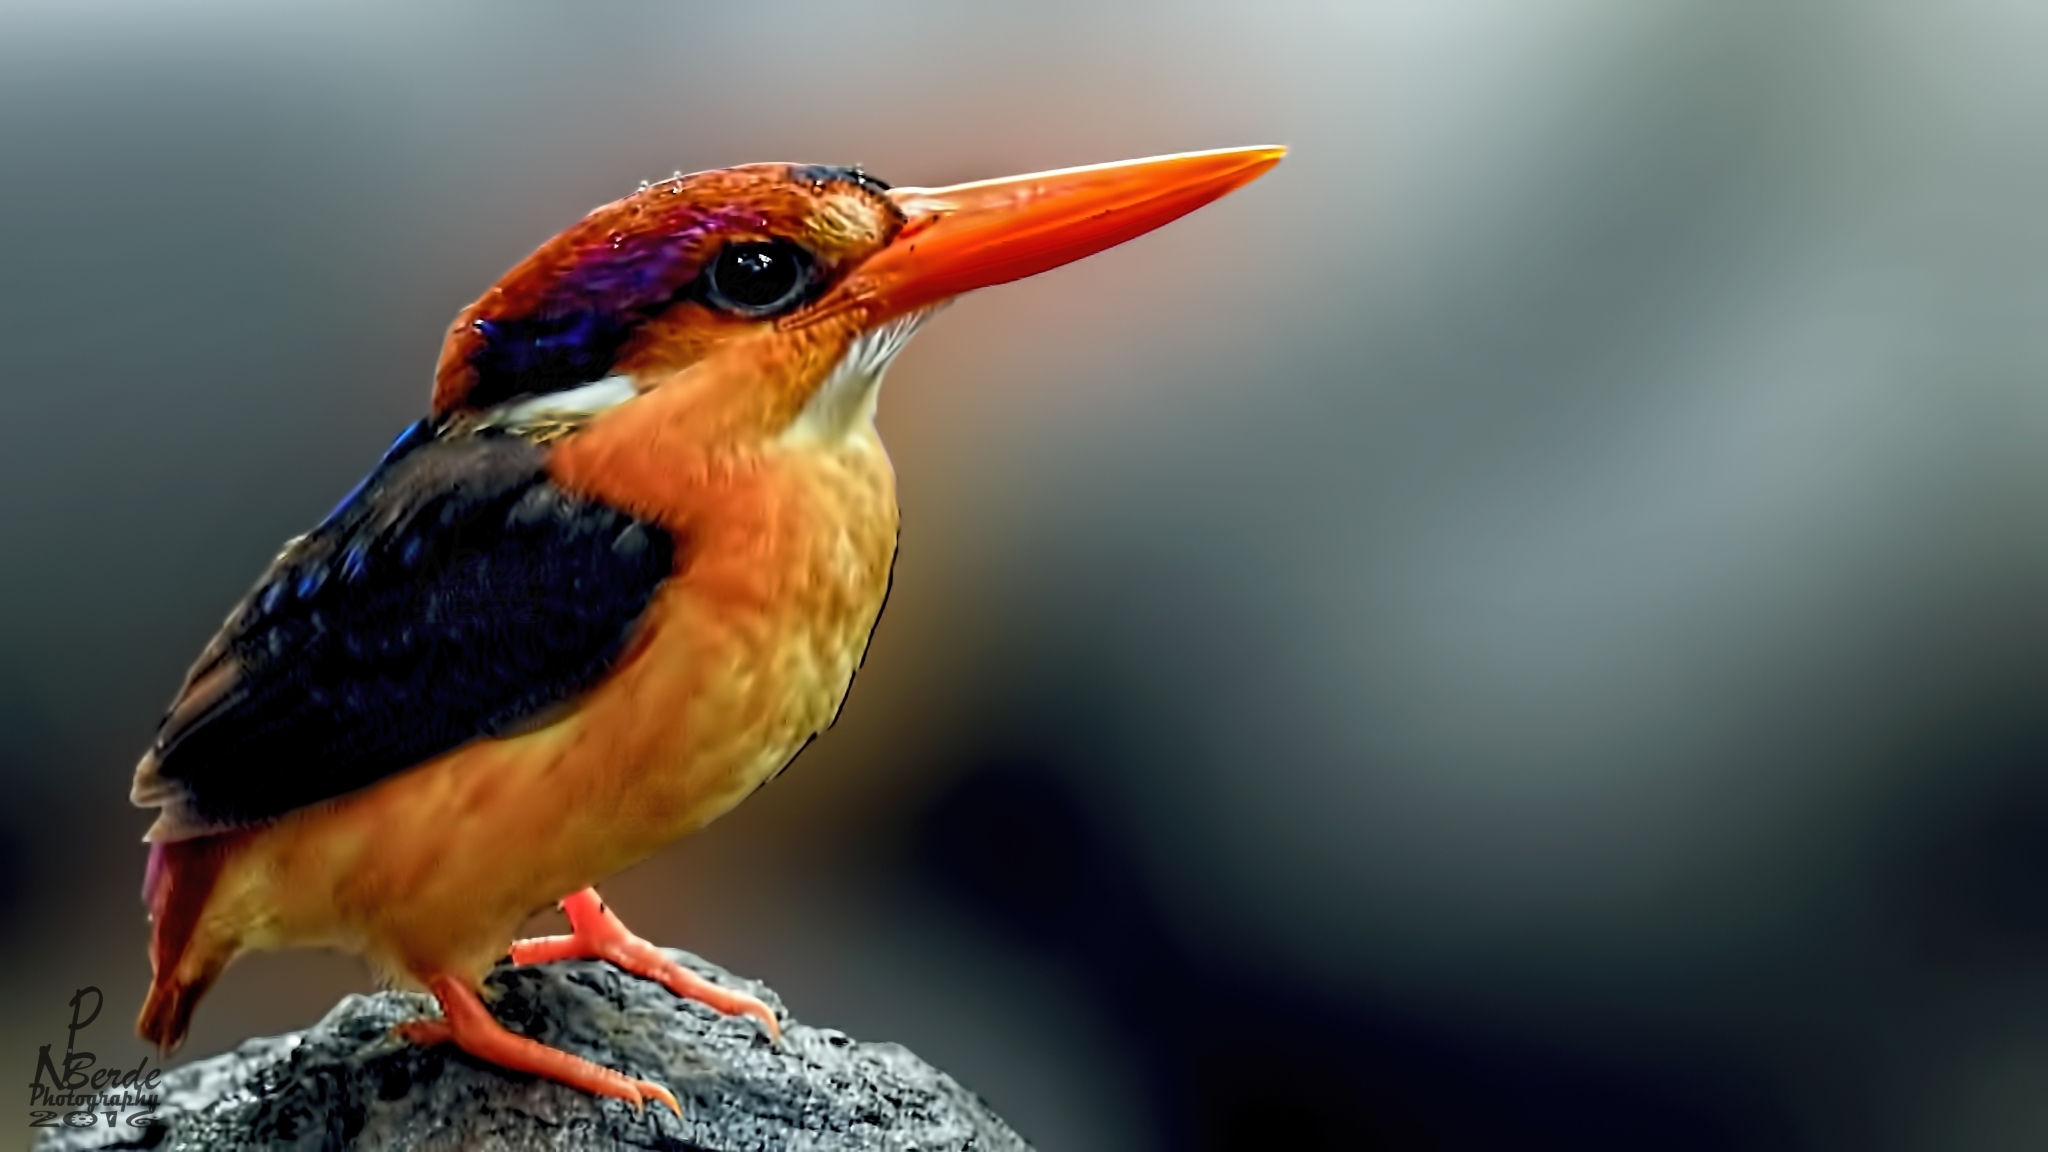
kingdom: Animalia
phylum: Chordata
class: Aves
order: Coraciiformes
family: Alcedinidae
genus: Ceyx
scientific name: Ceyx erithaca
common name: Oriental dwarf kingfisher
